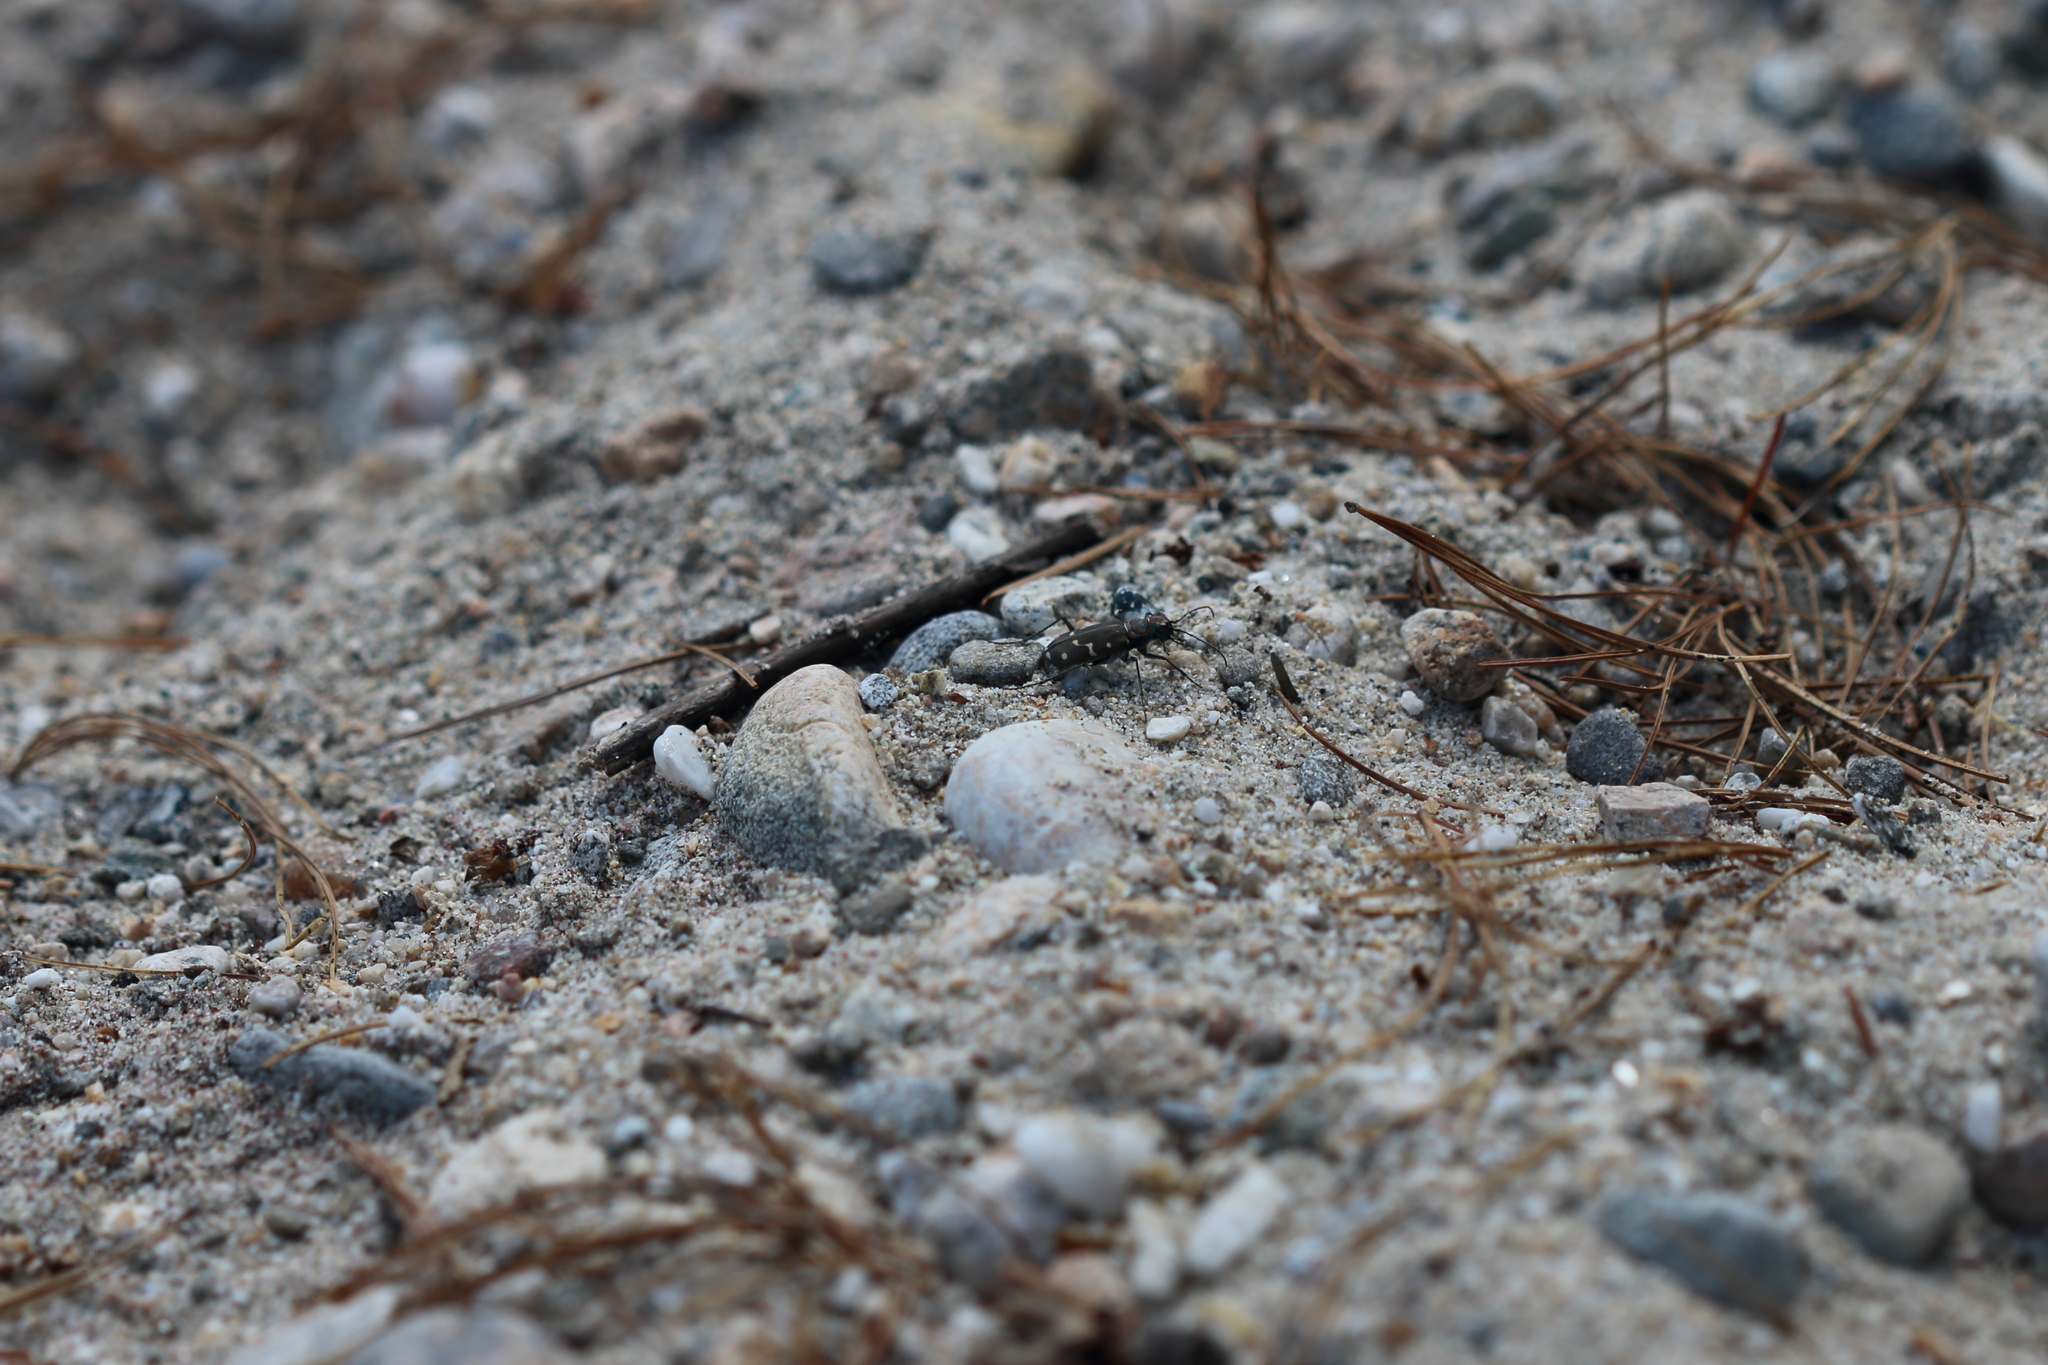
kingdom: Animalia
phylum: Arthropoda
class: Insecta
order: Coleoptera
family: Carabidae
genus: Cicindela
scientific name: Cicindela oregona
